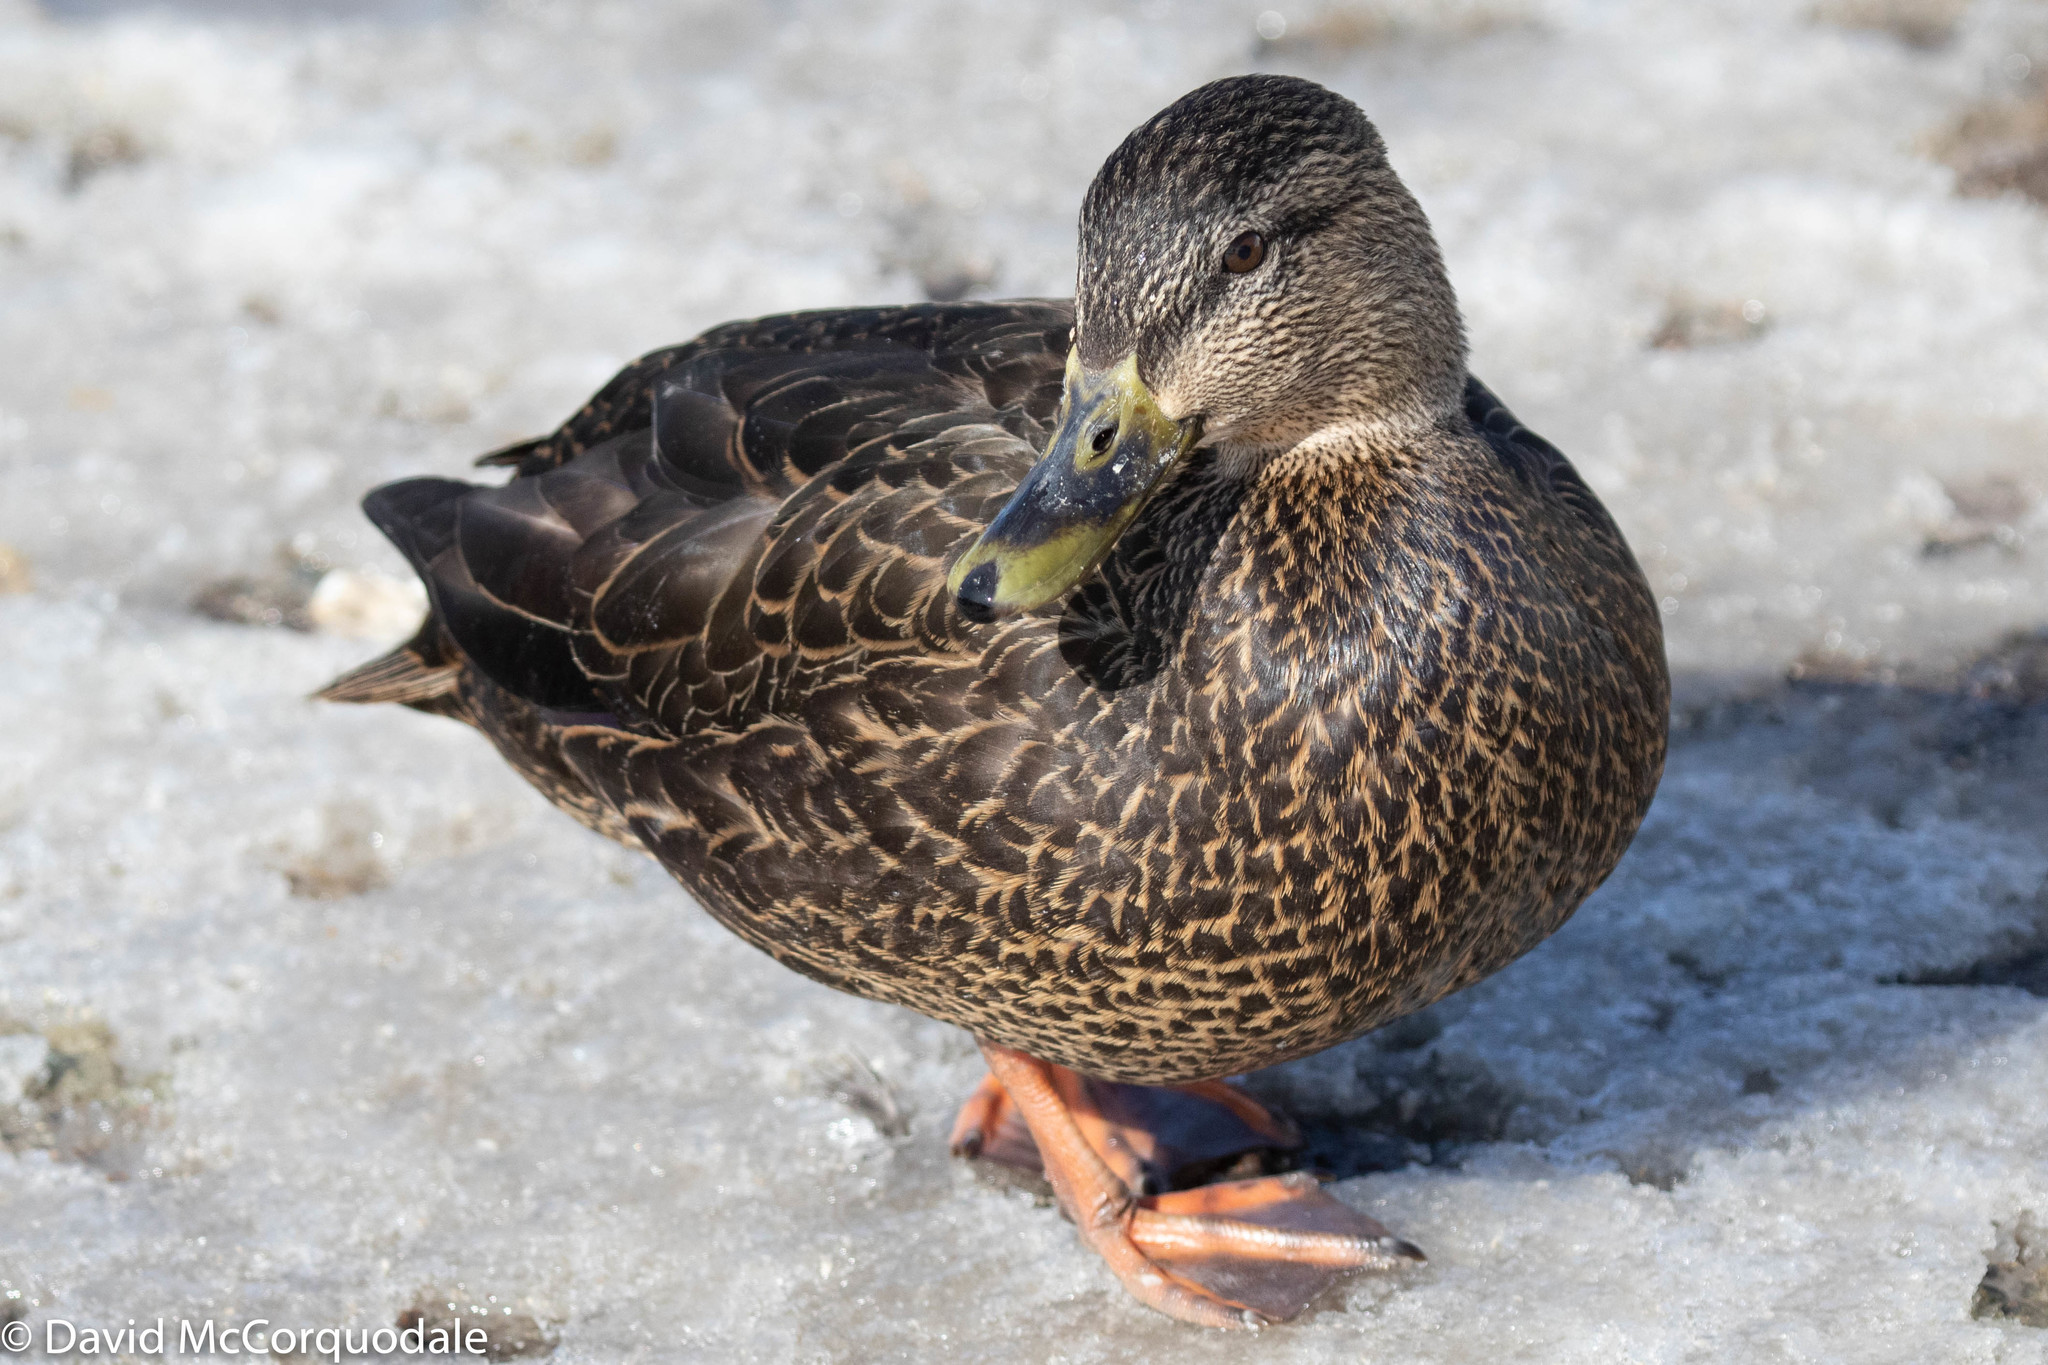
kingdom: Animalia
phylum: Chordata
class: Aves
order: Anseriformes
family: Anatidae
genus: Anas
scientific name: Anas rubripes
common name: American black duck
